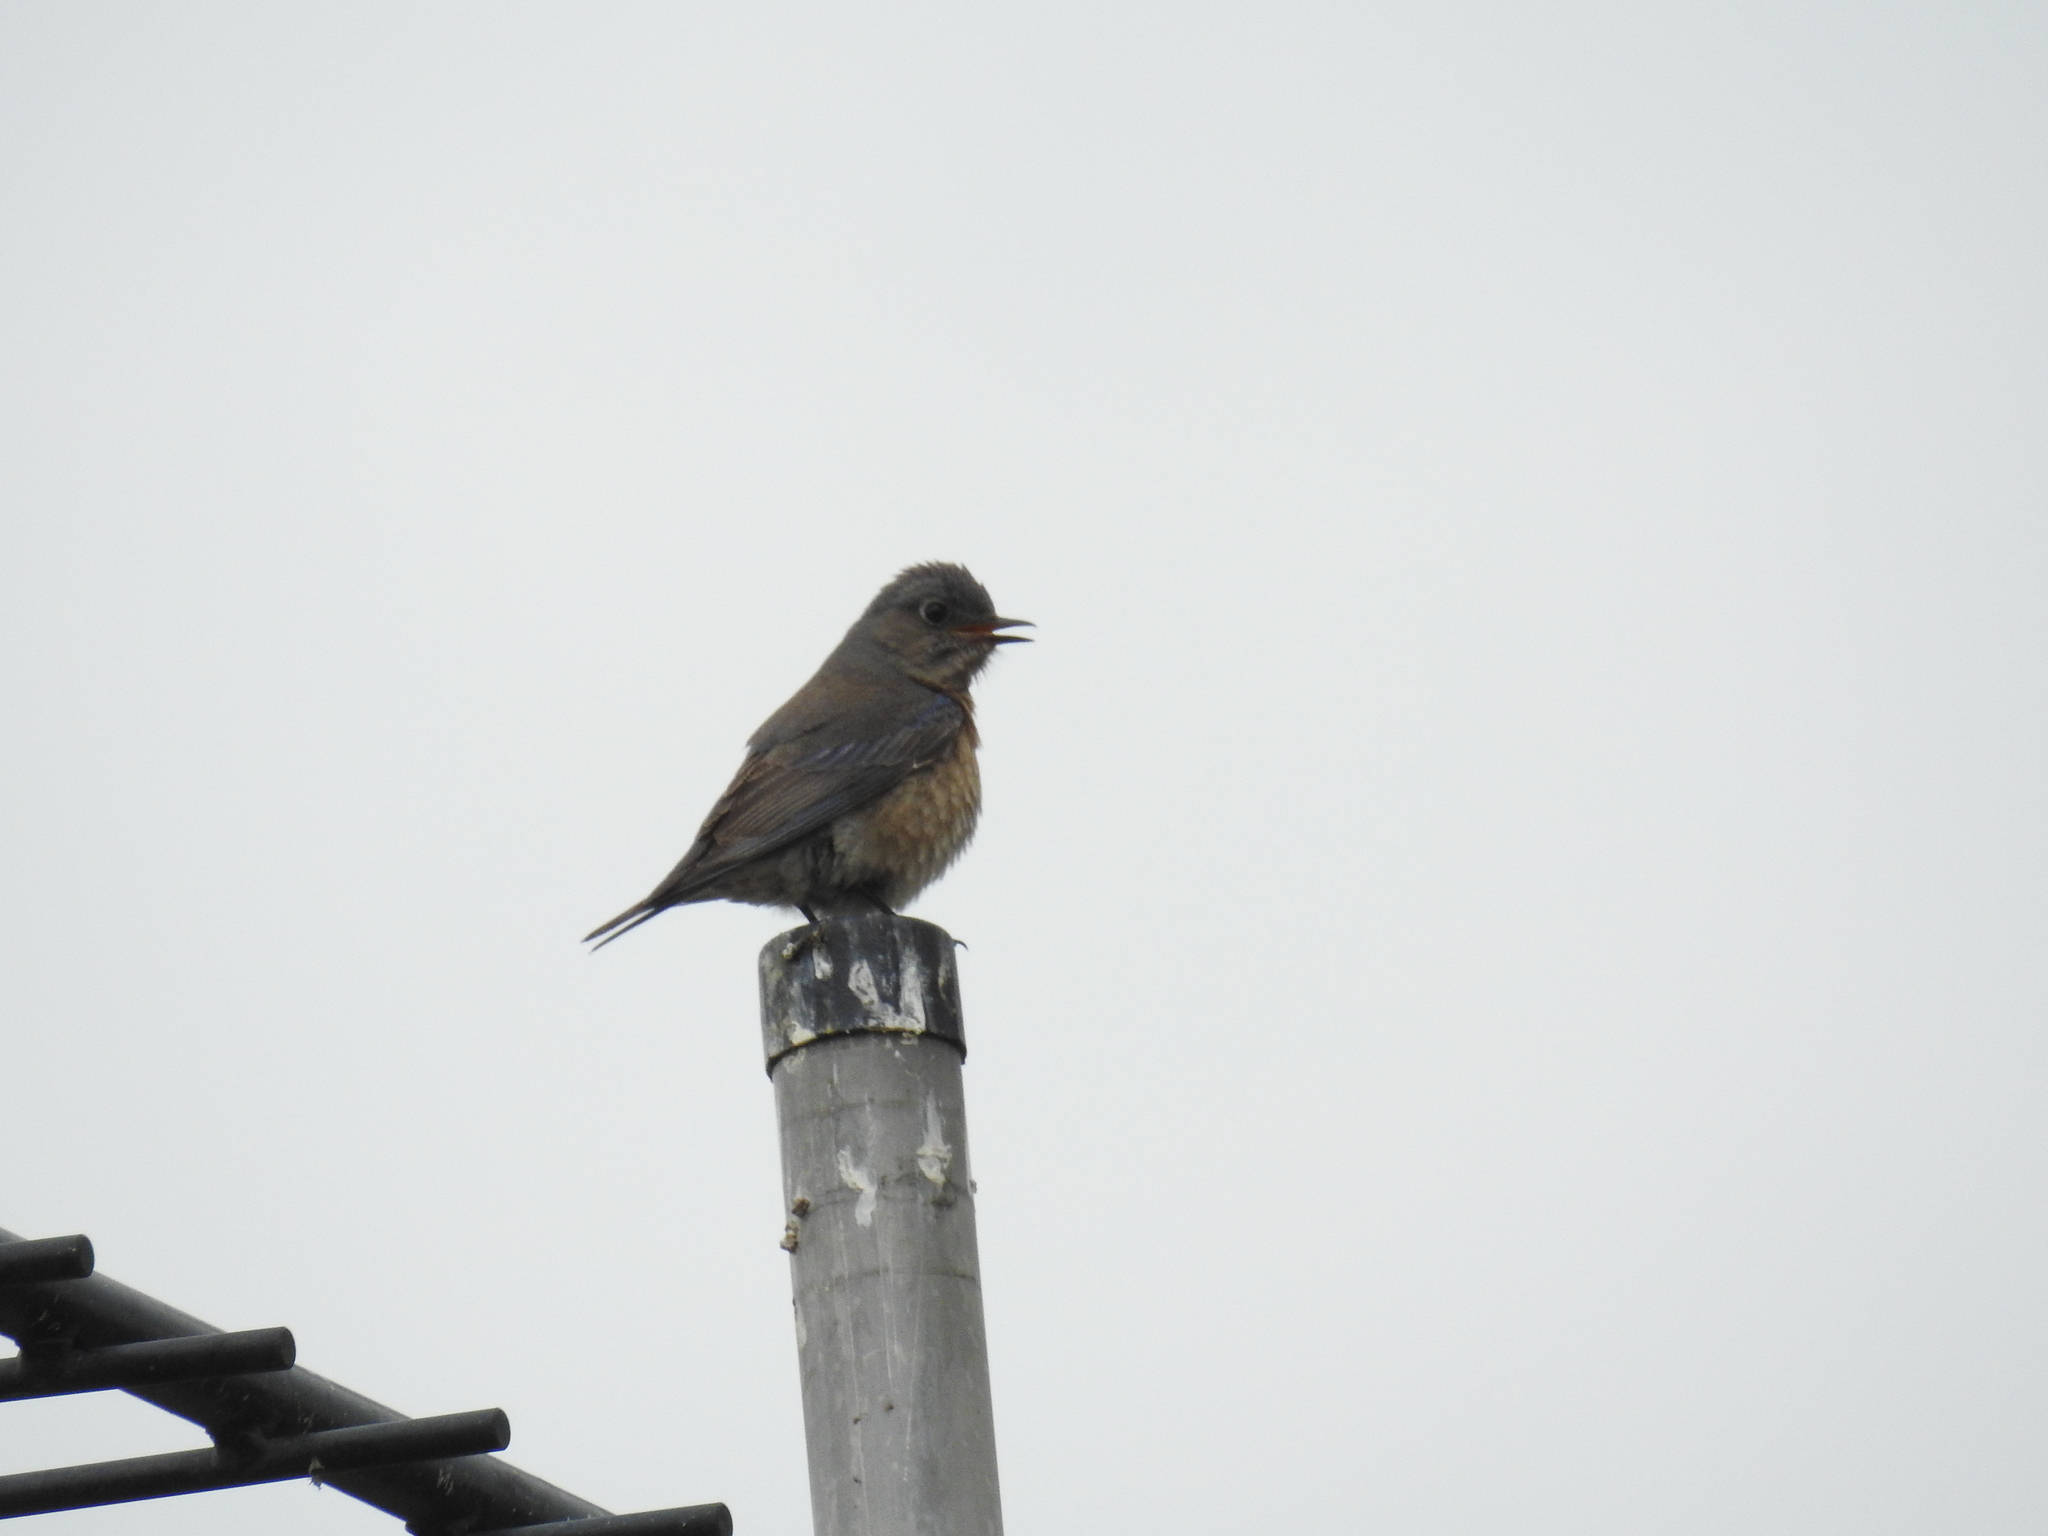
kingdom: Animalia
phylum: Chordata
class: Aves
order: Passeriformes
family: Turdidae
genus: Sialia
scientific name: Sialia mexicana
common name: Western bluebird
